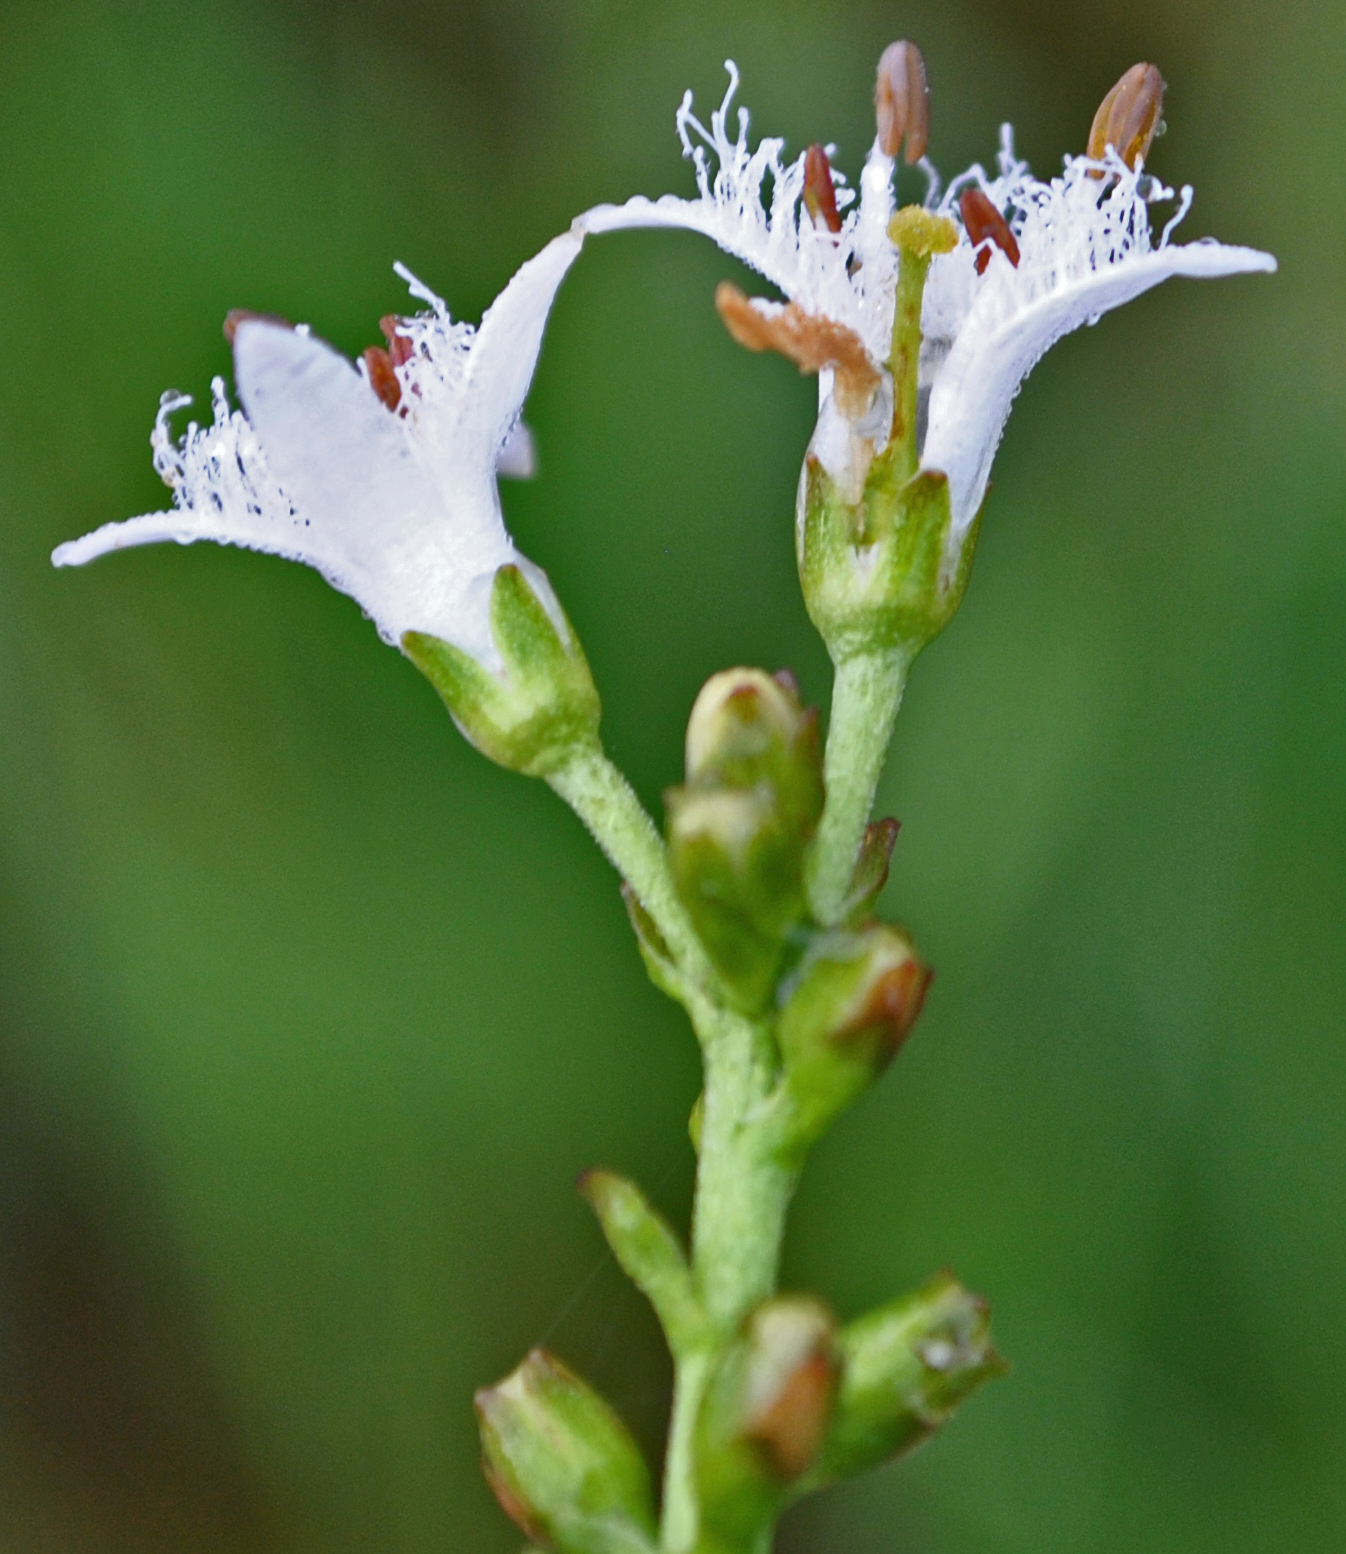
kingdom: Plantae
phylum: Tracheophyta
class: Magnoliopsida
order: Asterales
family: Menyanthaceae
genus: Menyanthes
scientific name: Menyanthes trifoliata
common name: Bogbean
